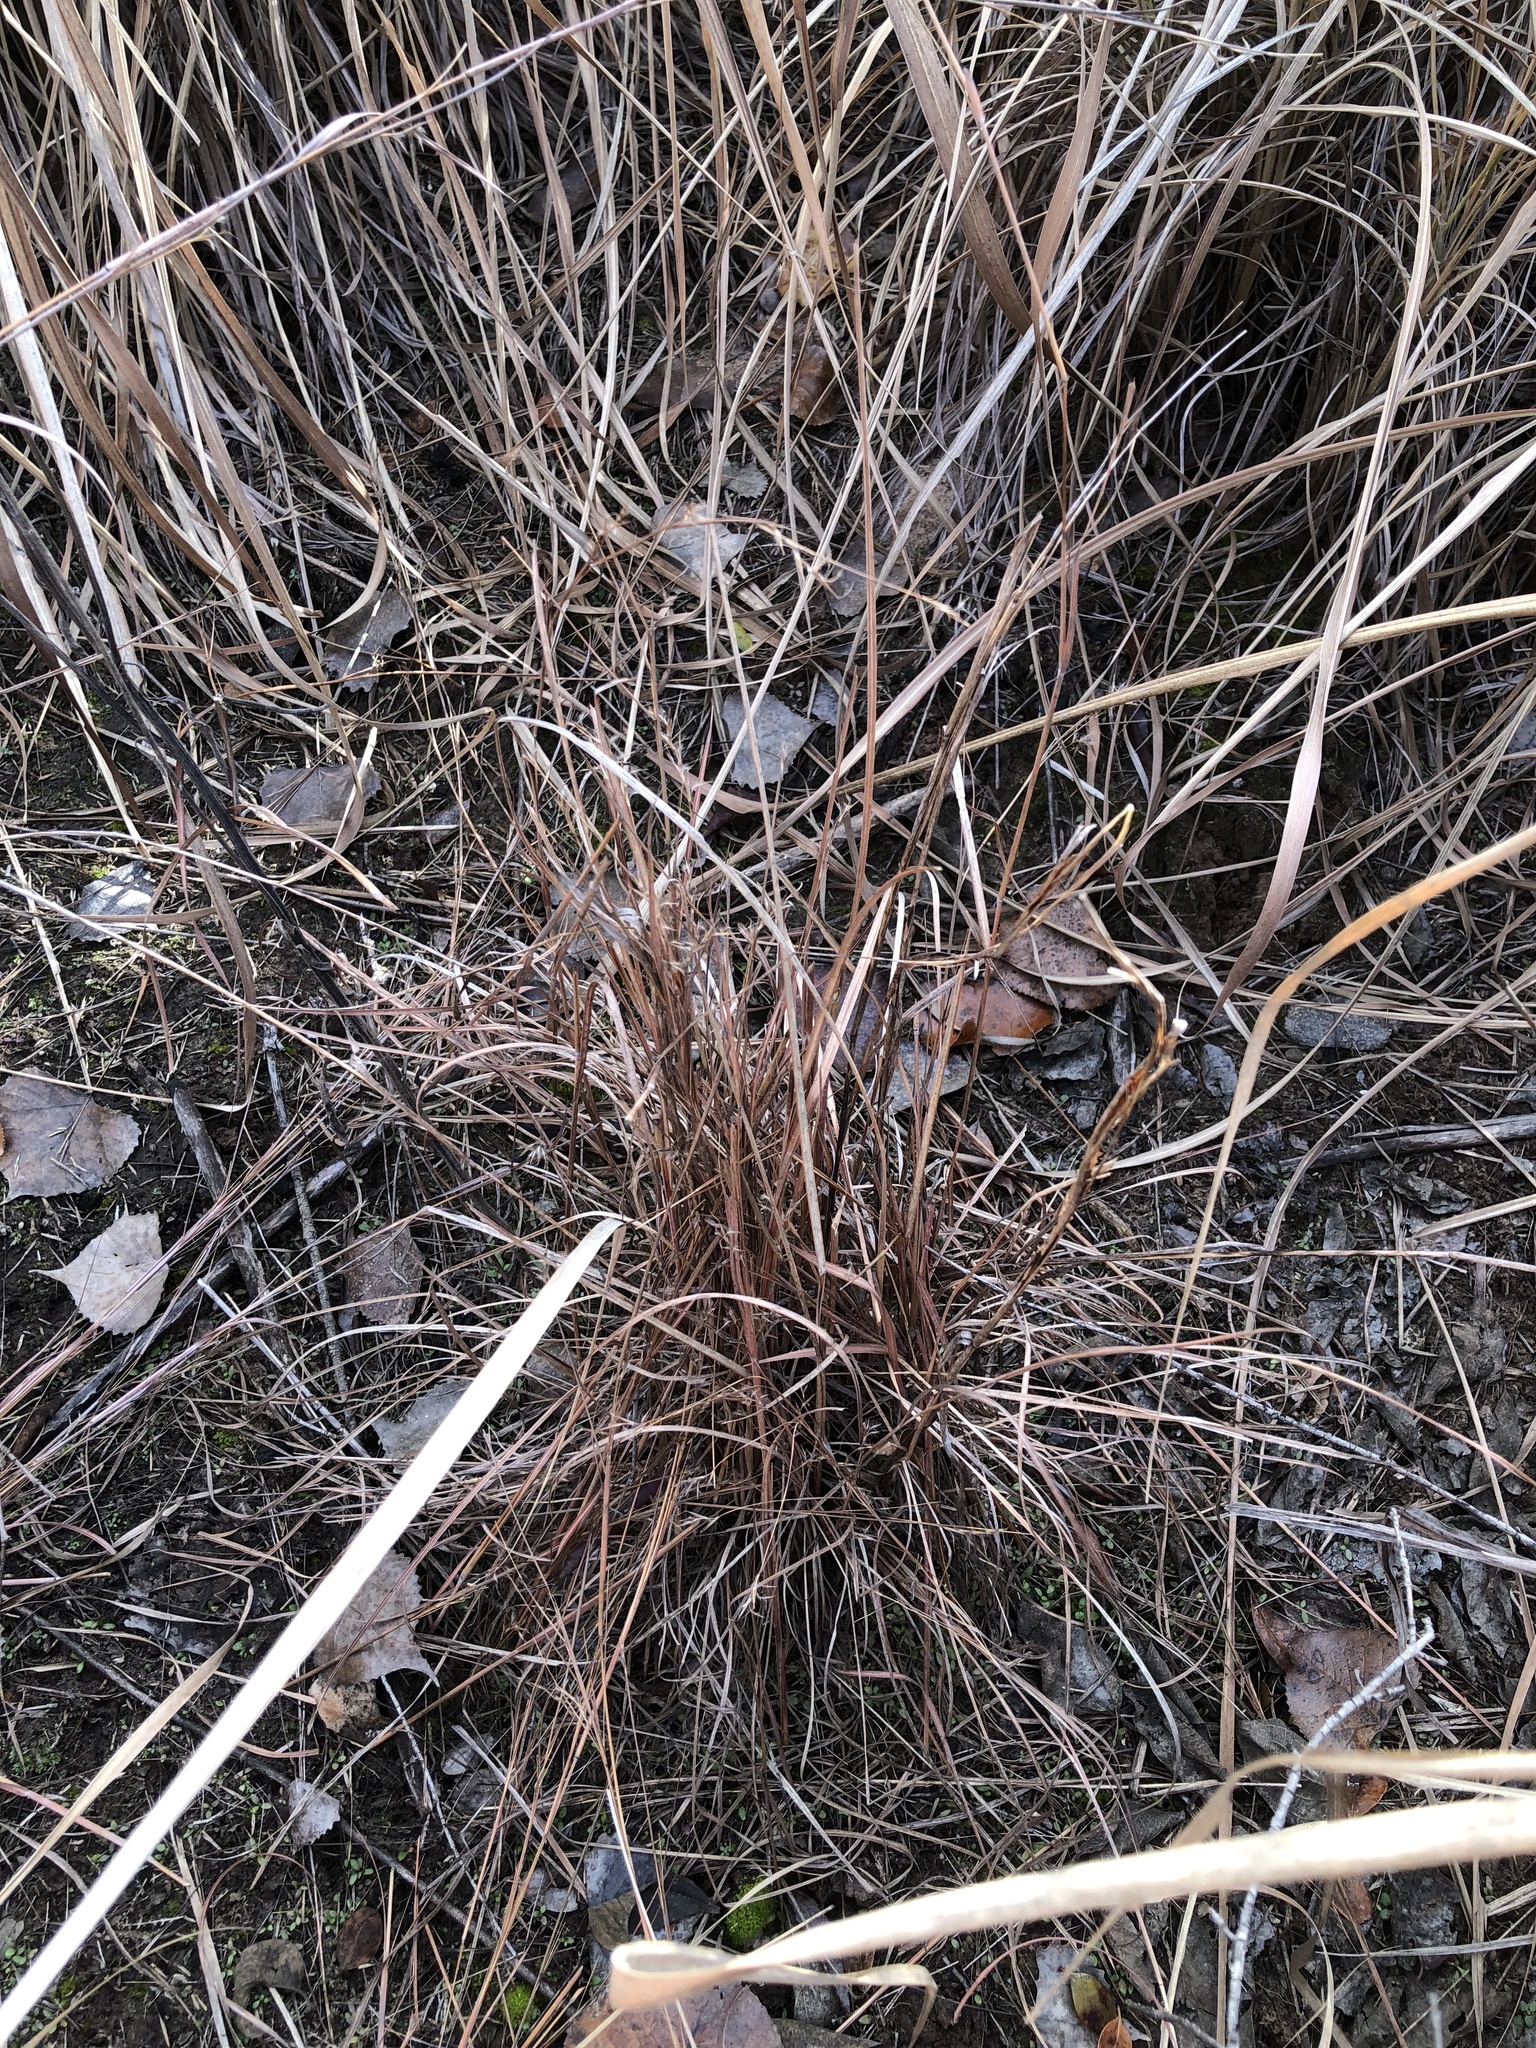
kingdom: Plantae
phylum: Tracheophyta
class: Liliopsida
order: Poales
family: Poaceae
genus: Schizachyrium
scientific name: Schizachyrium scoparium
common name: Little bluestem
